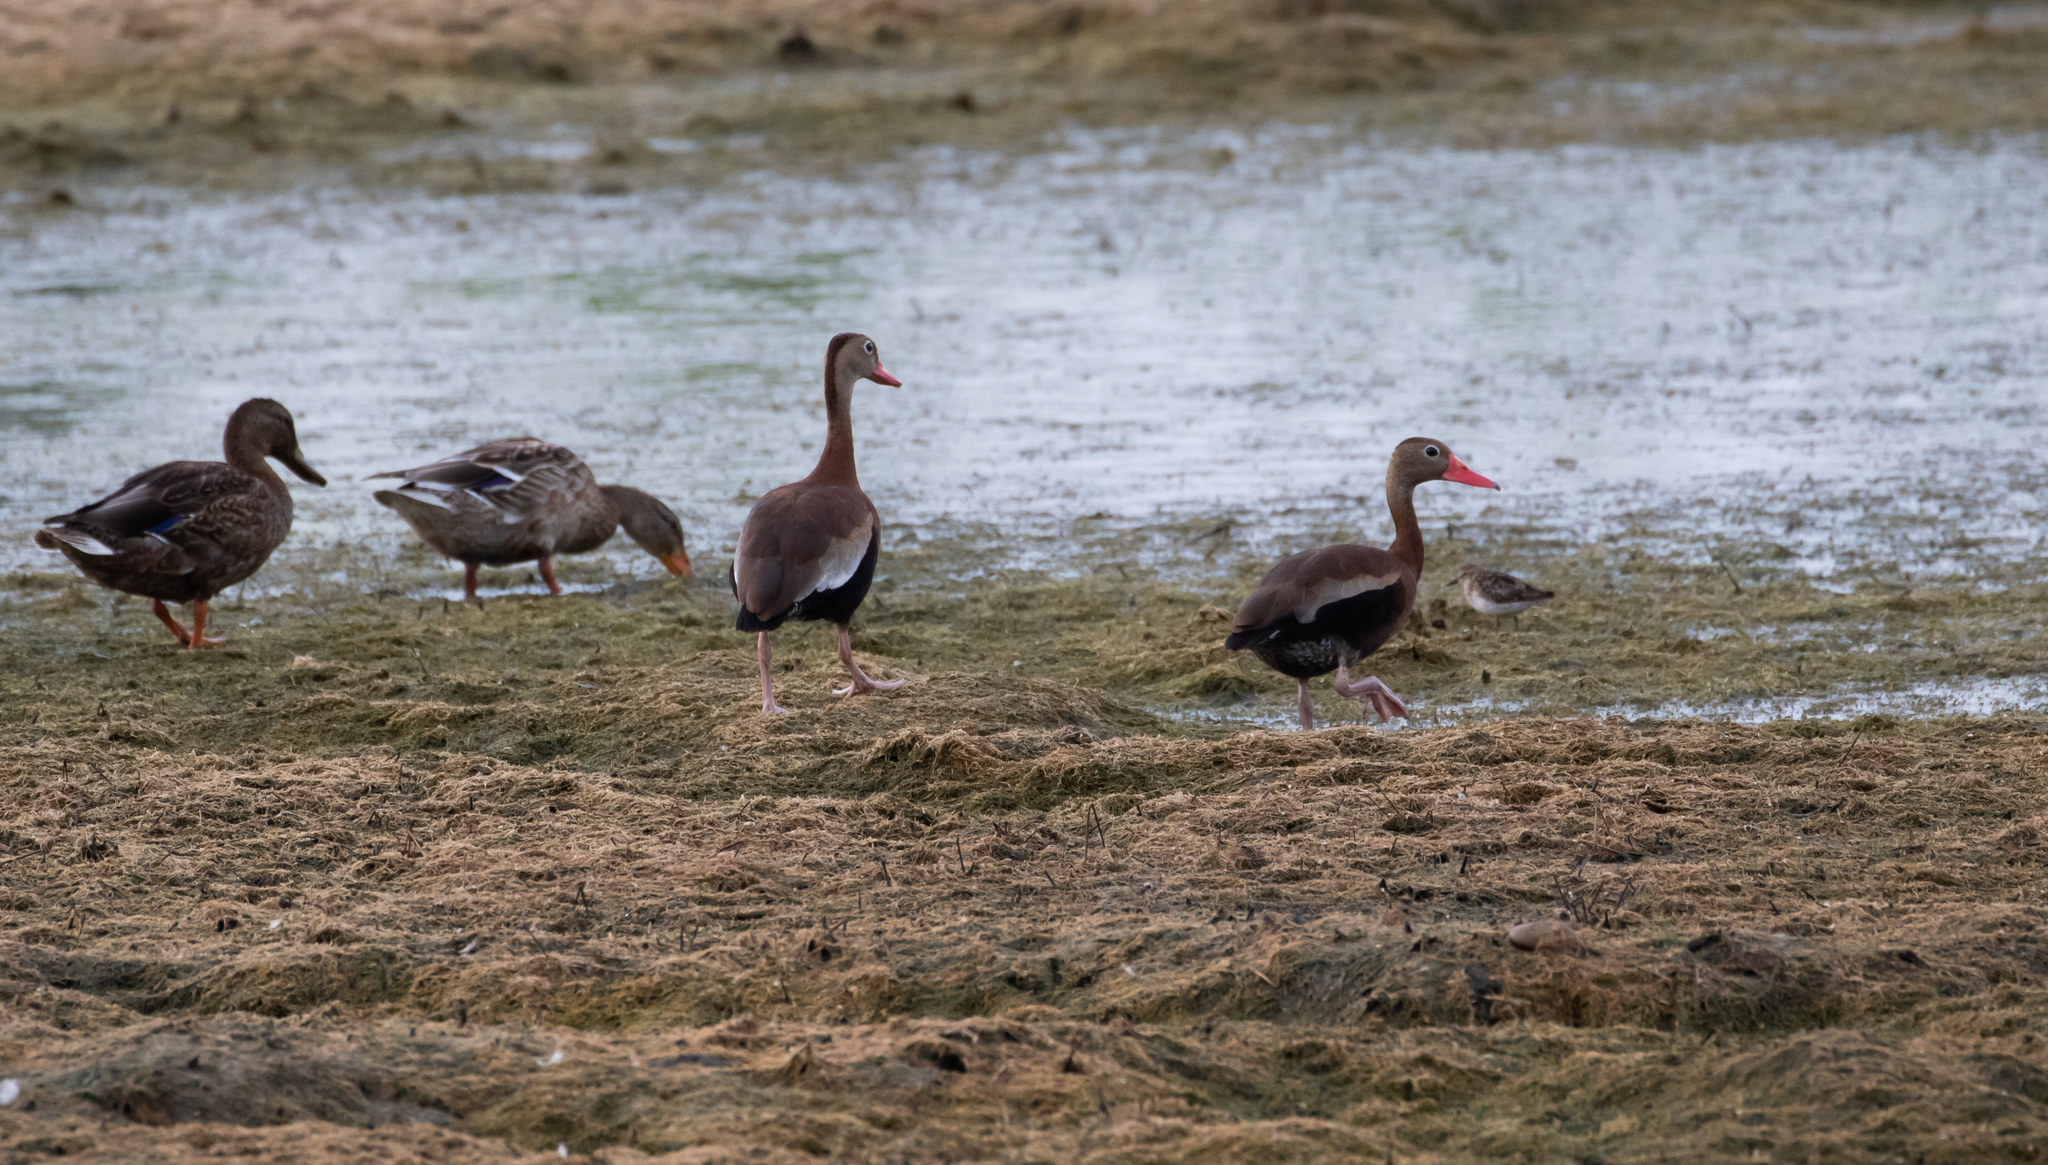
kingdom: Animalia
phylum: Chordata
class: Aves
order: Anseriformes
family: Anatidae
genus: Dendrocygna
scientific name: Dendrocygna autumnalis
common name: Black-bellied whistling duck
